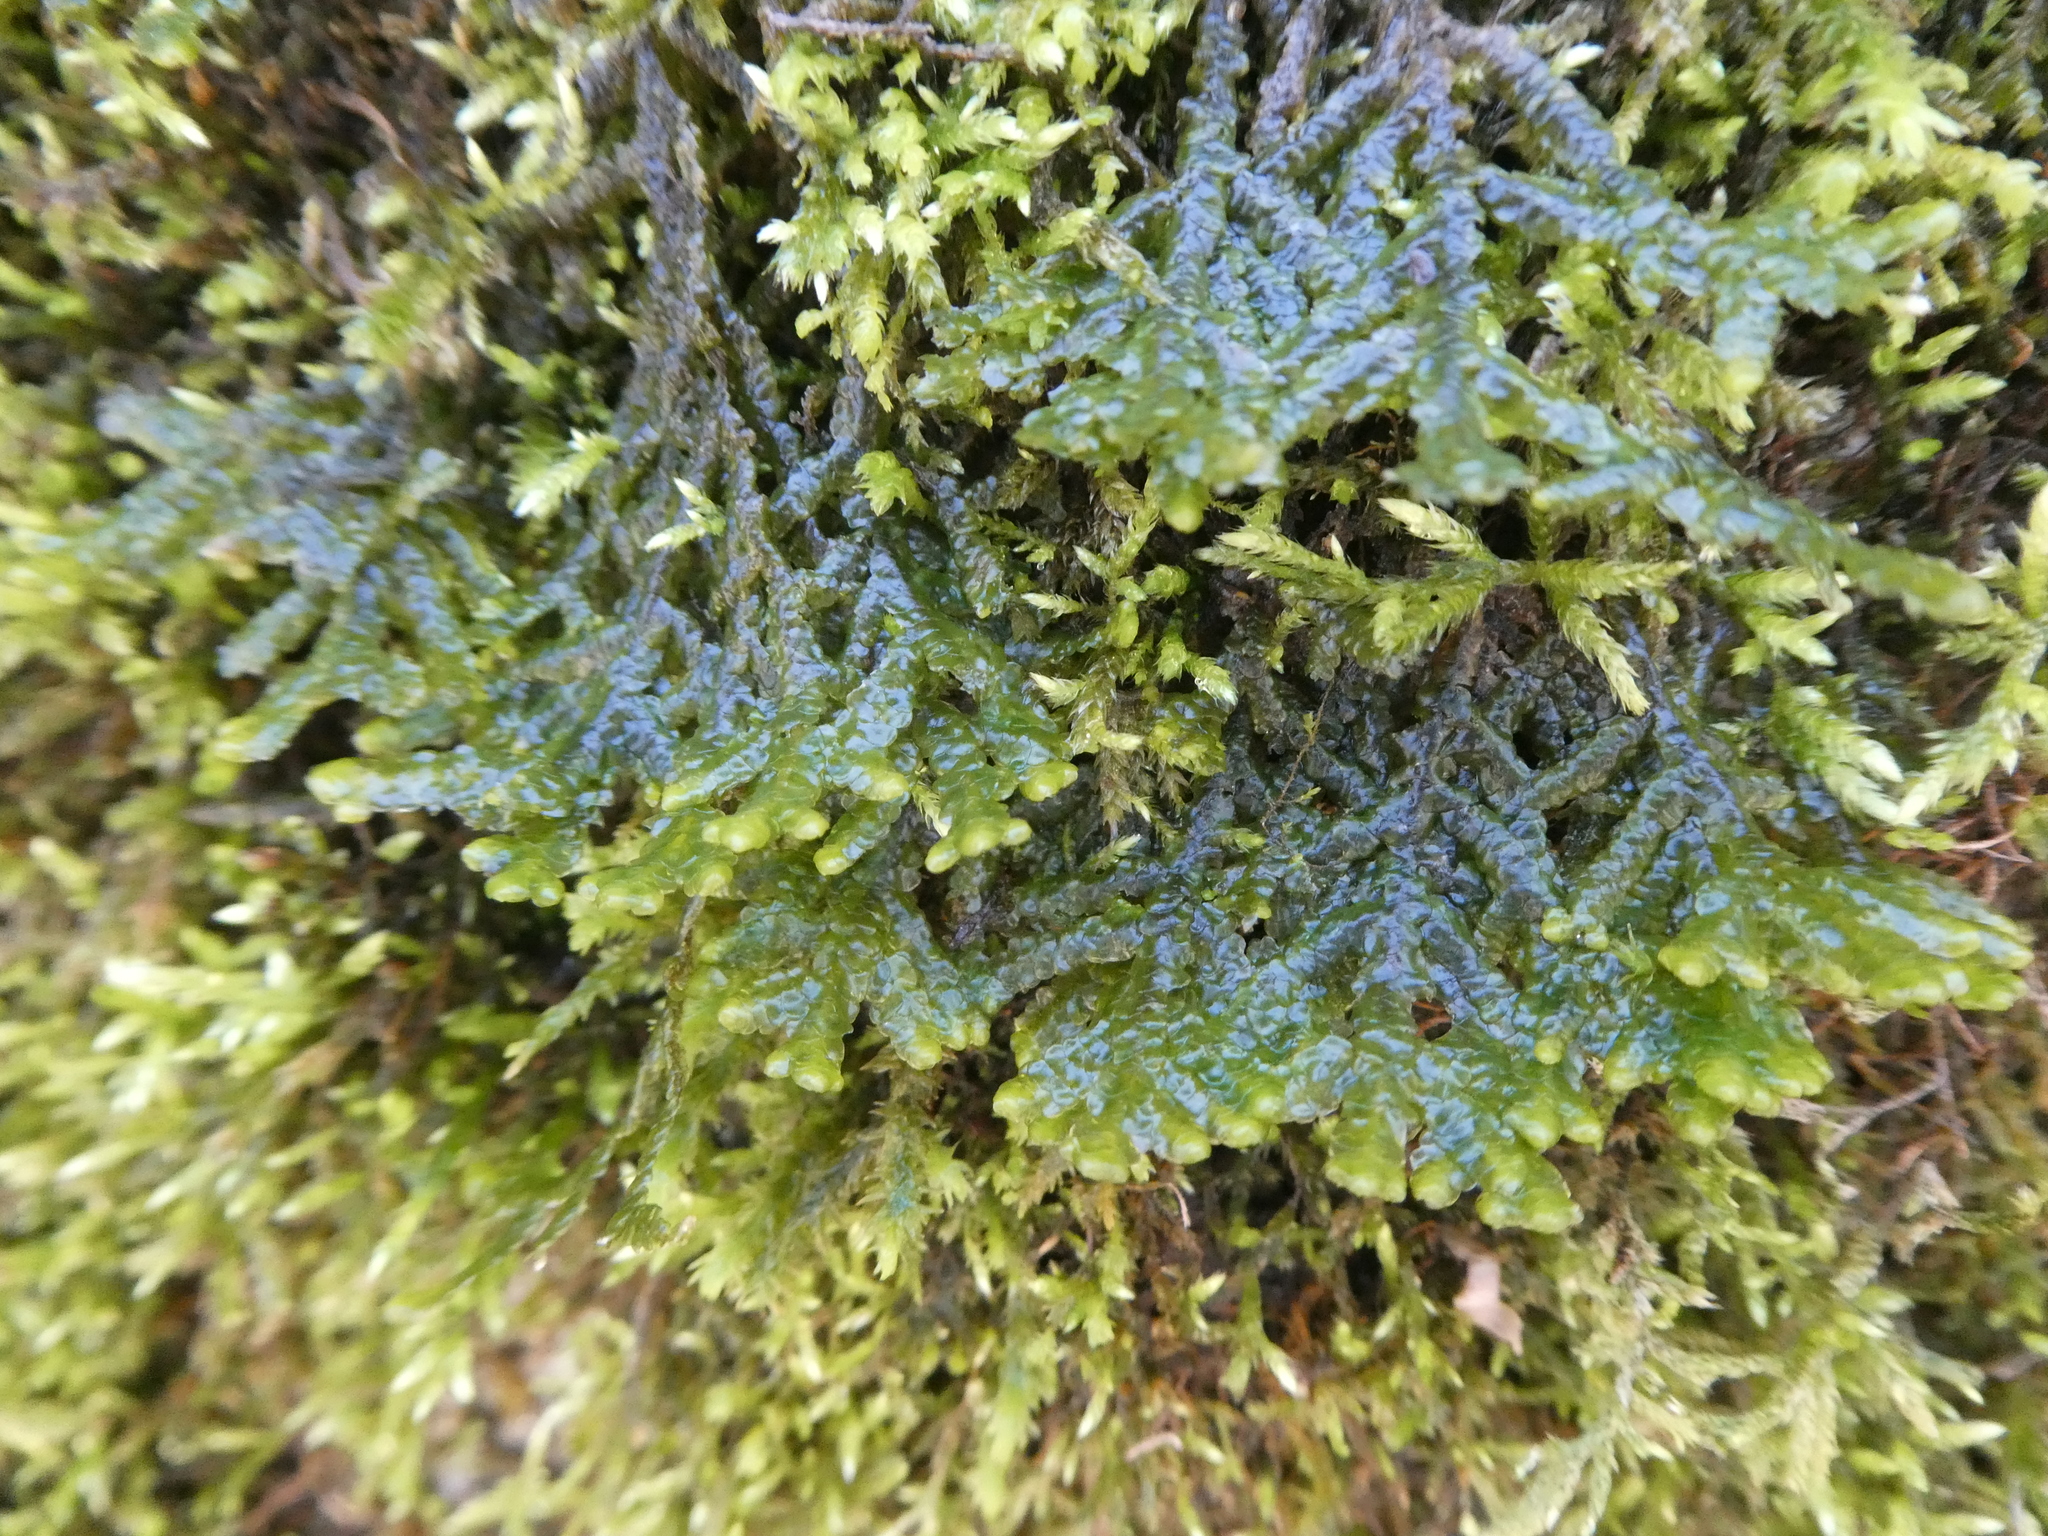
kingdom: Plantae
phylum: Marchantiophyta
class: Jungermanniopsida
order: Porellales
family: Porellaceae
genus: Porella
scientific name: Porella platyphylla
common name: Wall scalewort
